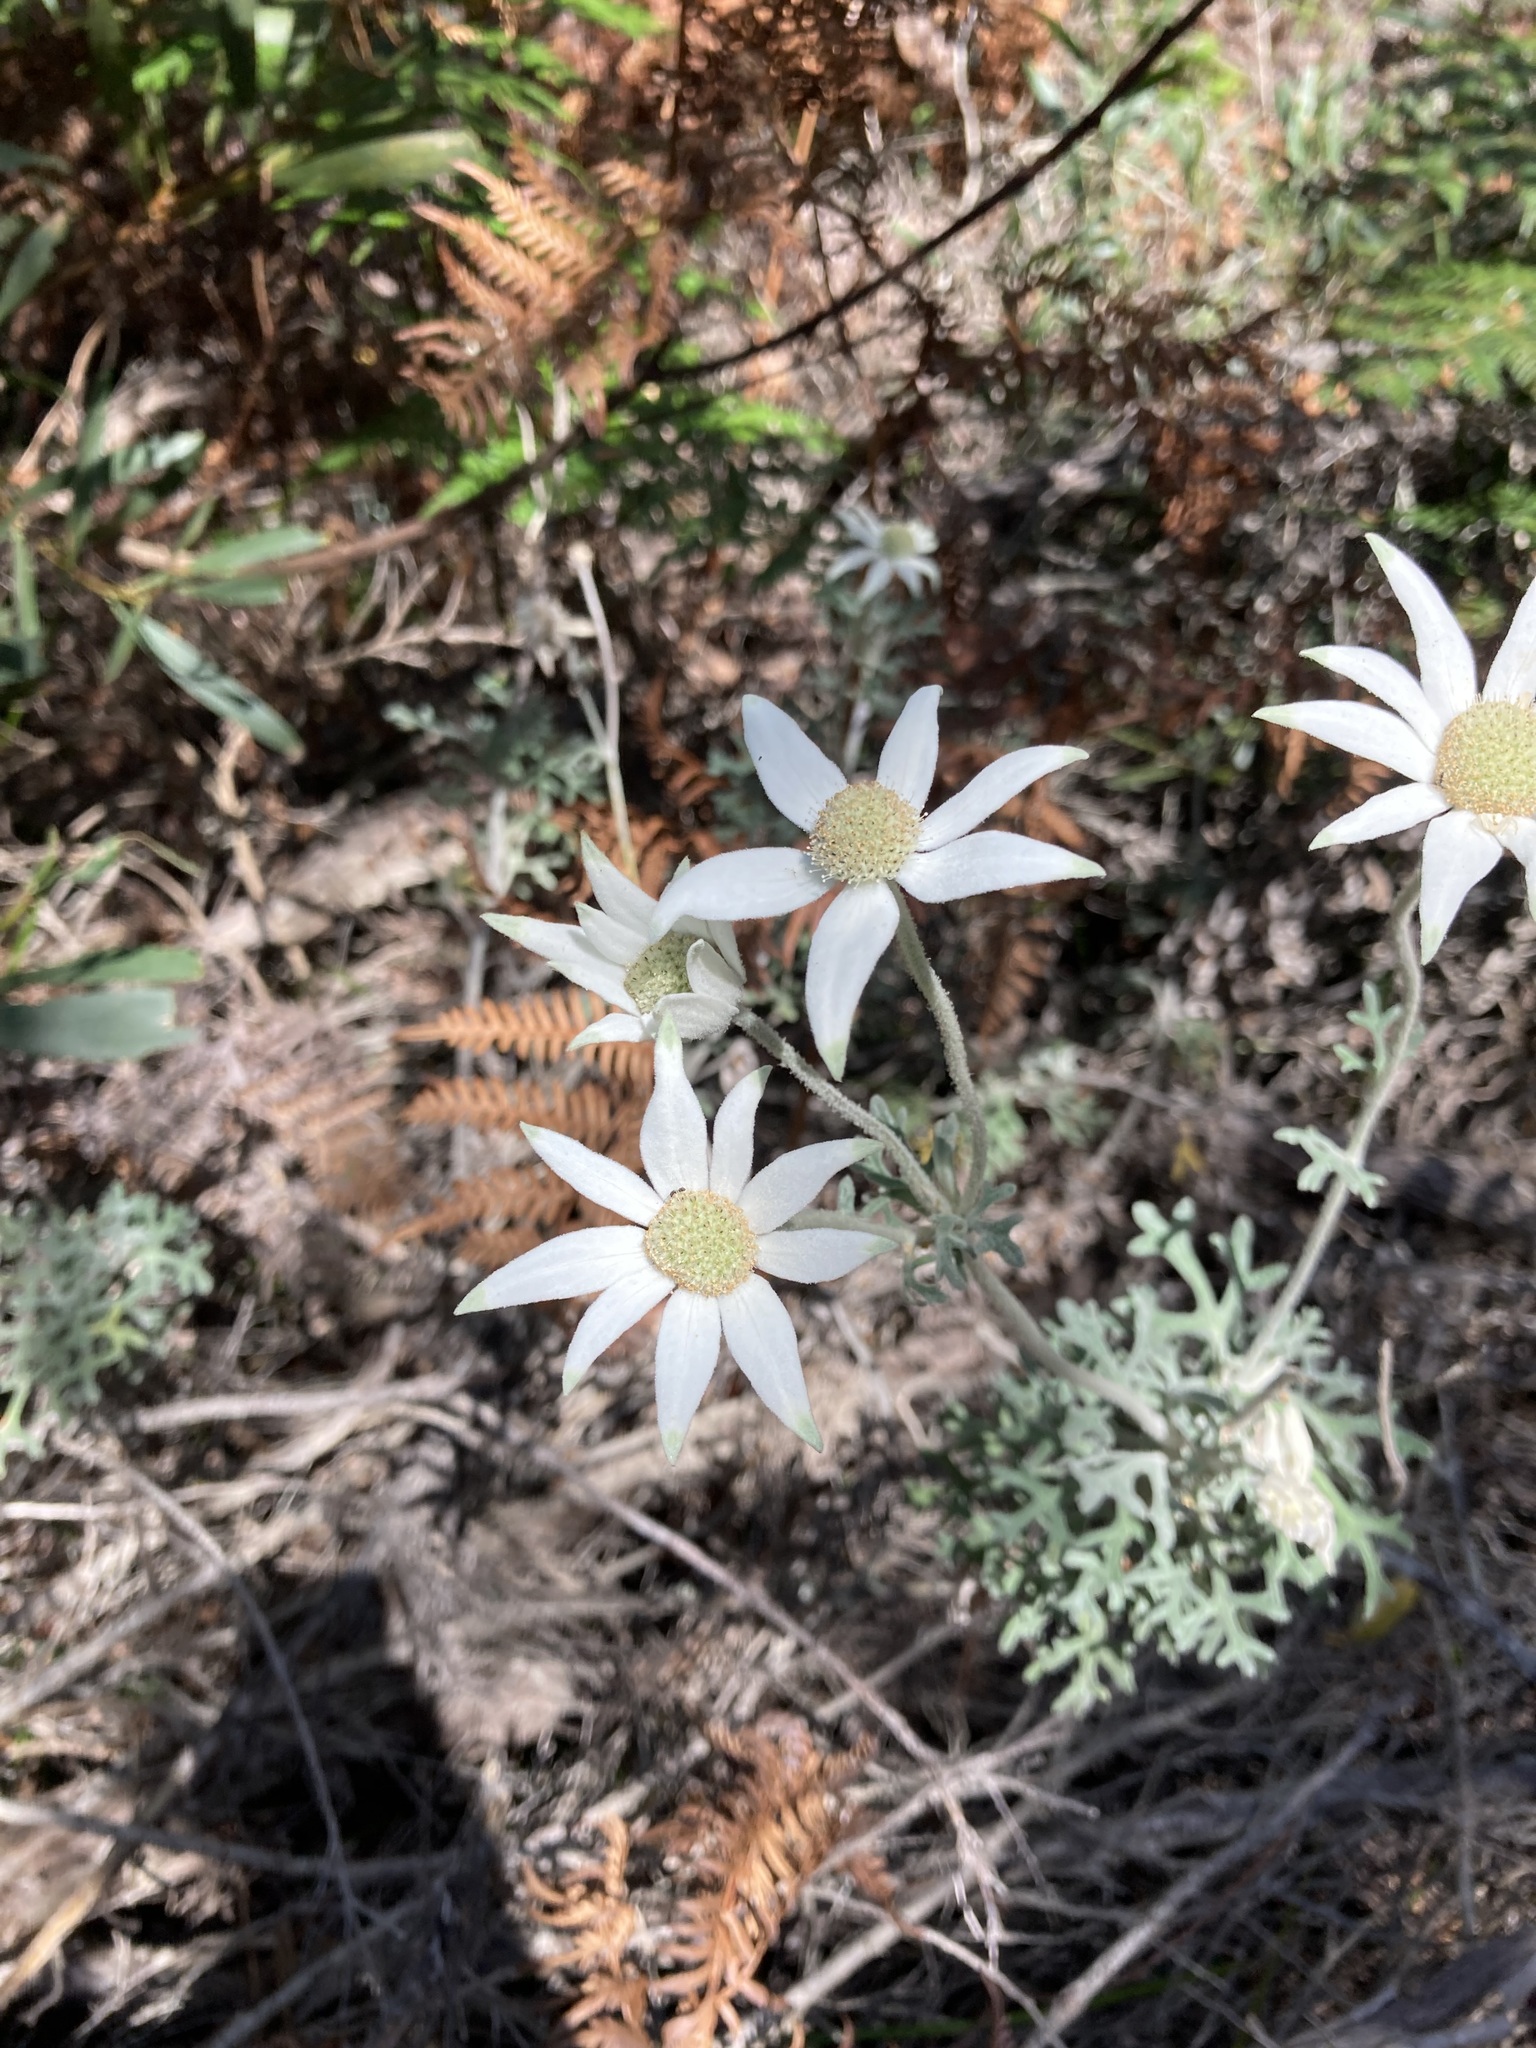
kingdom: Plantae
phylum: Tracheophyta
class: Magnoliopsida
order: Apiales
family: Apiaceae
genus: Actinotus
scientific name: Actinotus helianthi
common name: Flannel-flower
